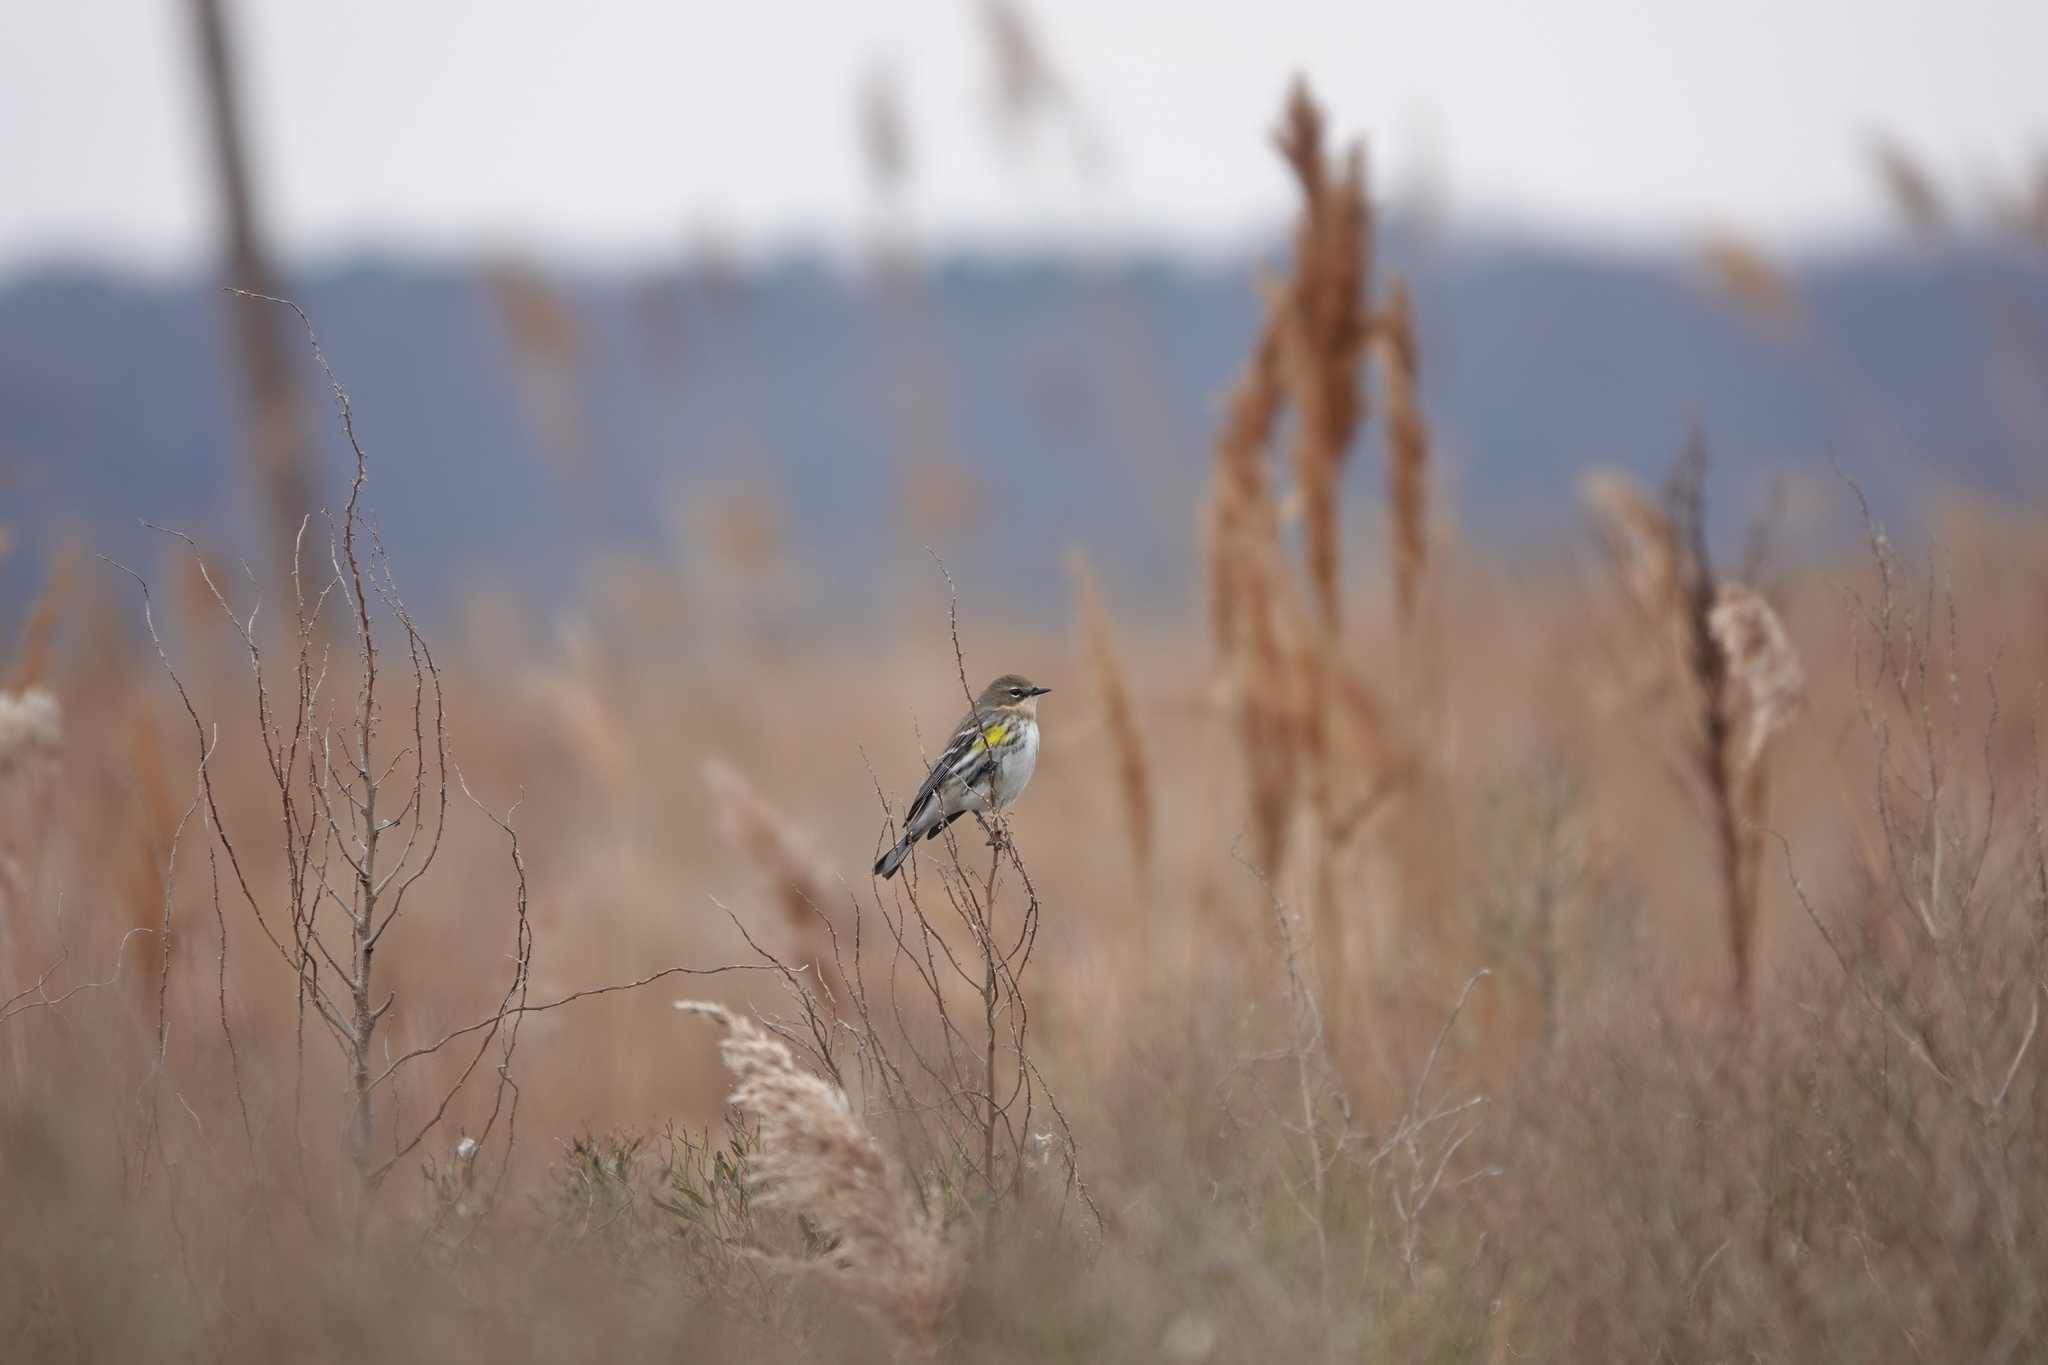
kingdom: Animalia
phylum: Chordata
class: Aves
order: Passeriformes
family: Parulidae
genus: Setophaga
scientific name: Setophaga coronata
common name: Myrtle warbler
